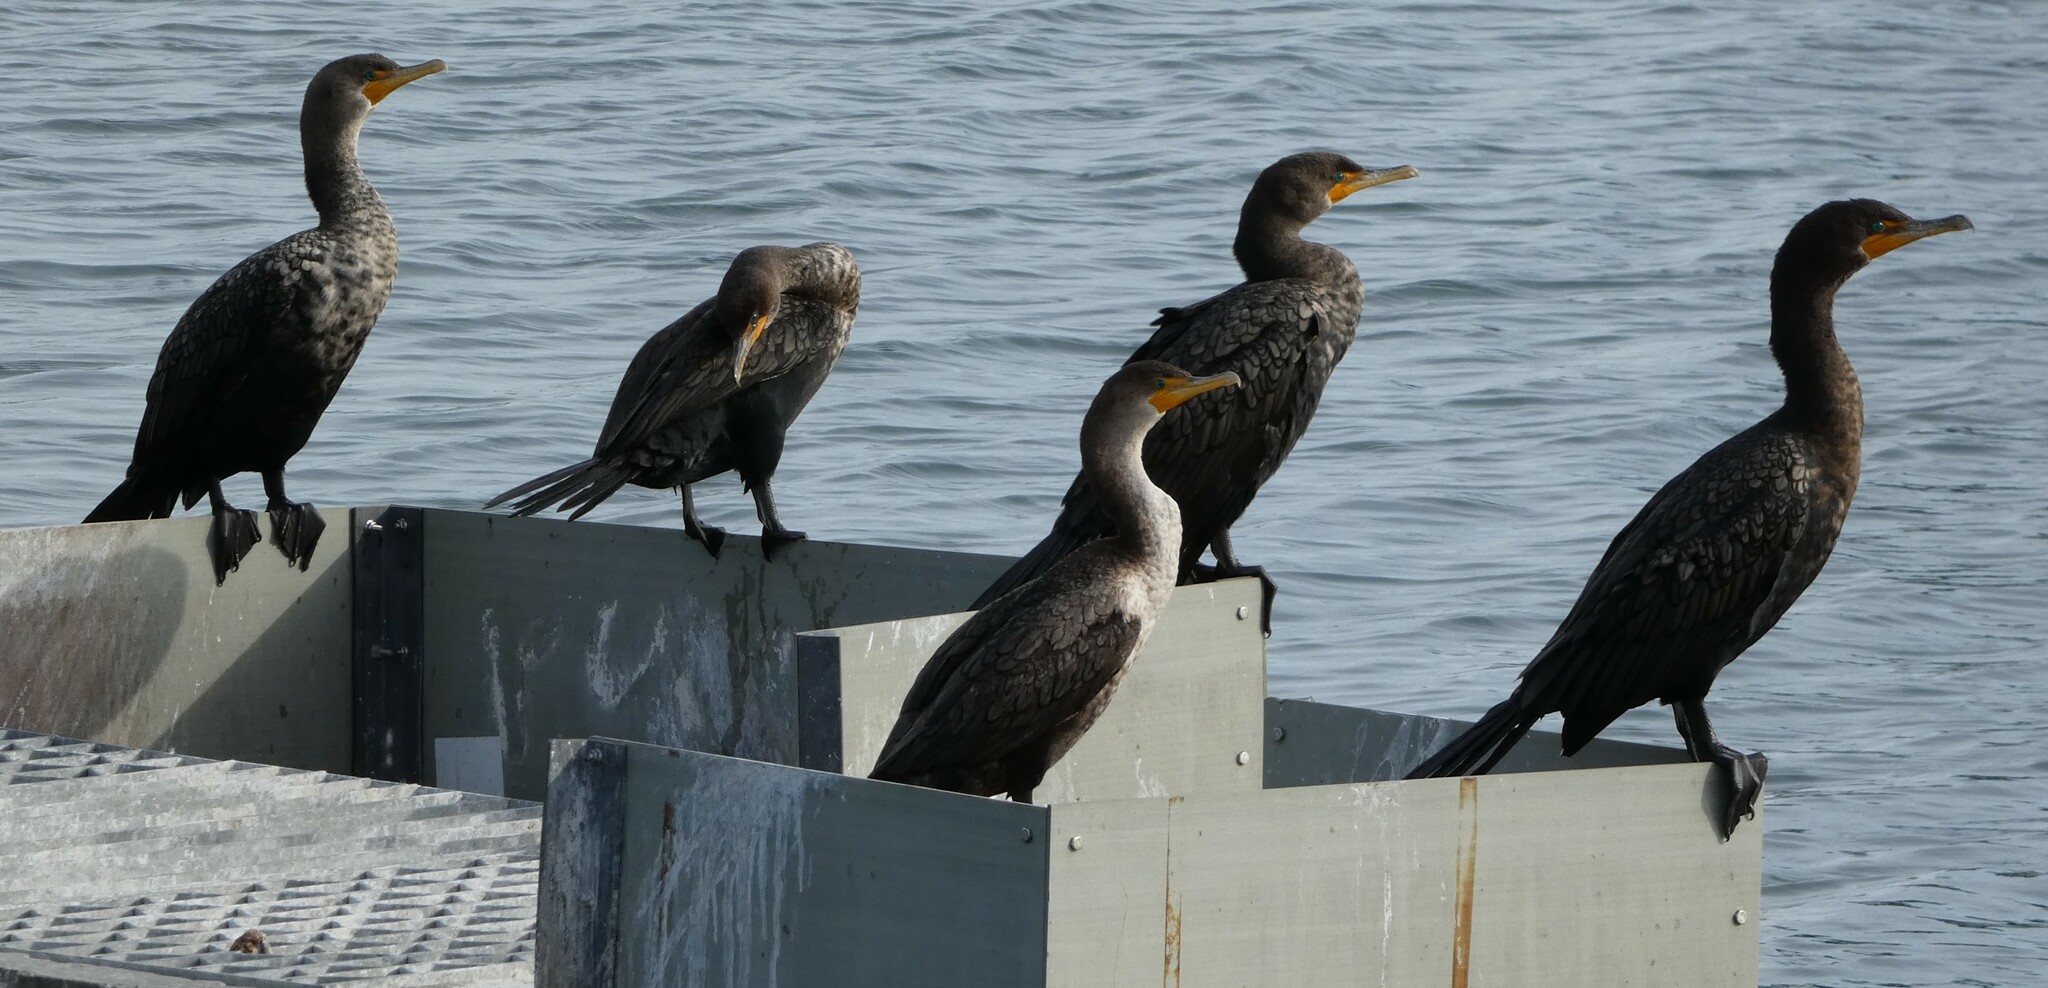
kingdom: Animalia
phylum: Chordata
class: Aves
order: Suliformes
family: Phalacrocoracidae
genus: Phalacrocorax
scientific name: Phalacrocorax auritus
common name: Double-crested cormorant
